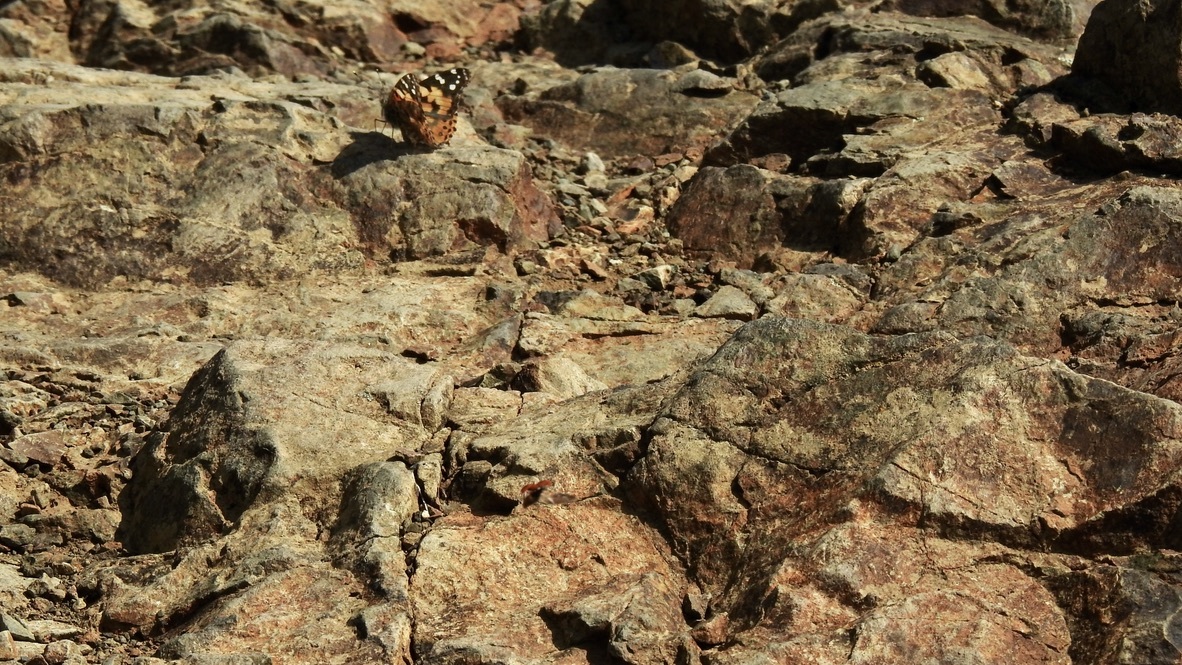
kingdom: Animalia
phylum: Arthropoda
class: Insecta
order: Lepidoptera
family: Nymphalidae
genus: Vanessa
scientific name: Vanessa cardui
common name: Painted lady
